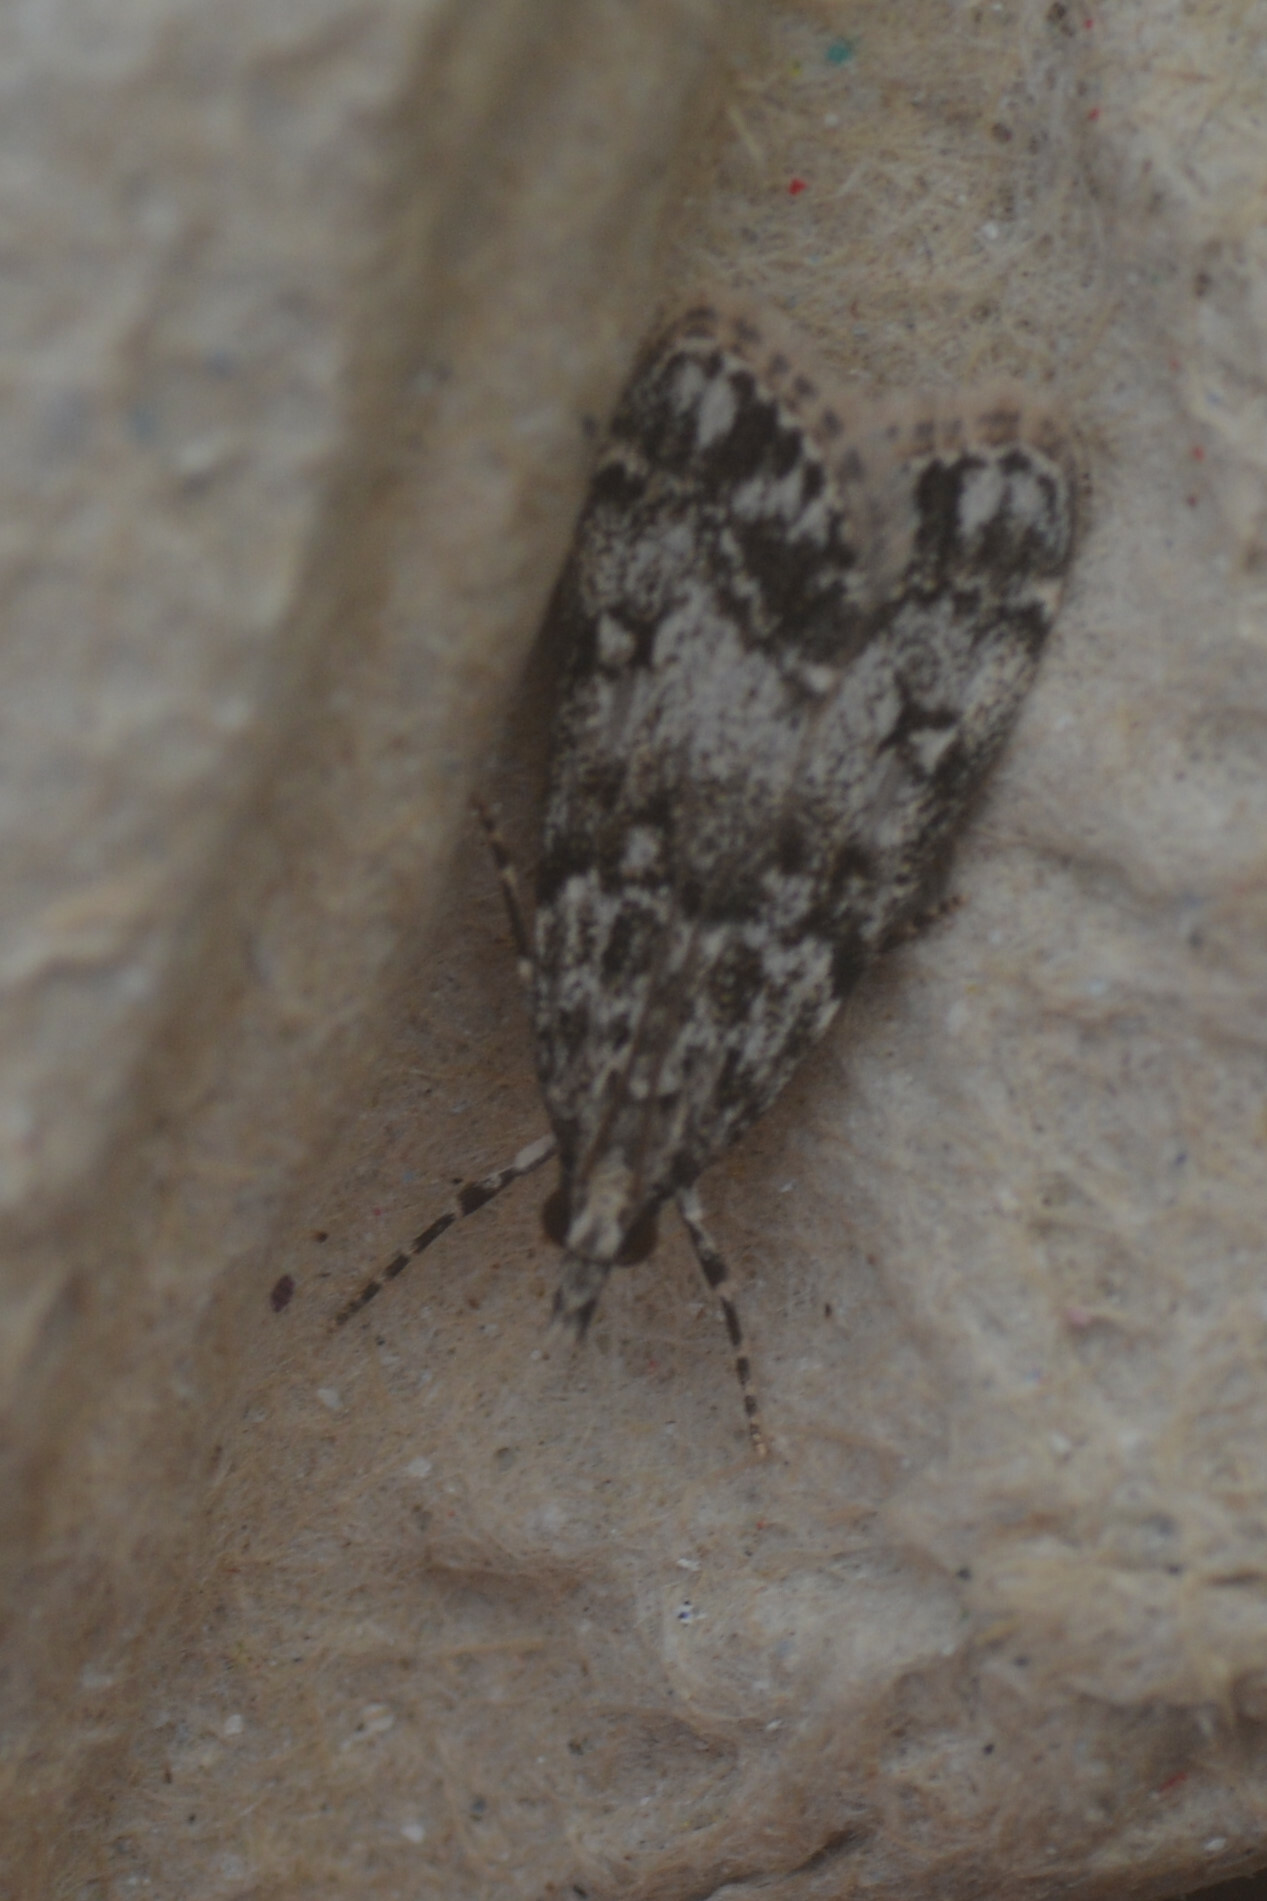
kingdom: Animalia
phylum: Arthropoda
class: Insecta
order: Lepidoptera
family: Crambidae
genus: Eudonia
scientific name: Eudonia lacustrata
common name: Little grey
